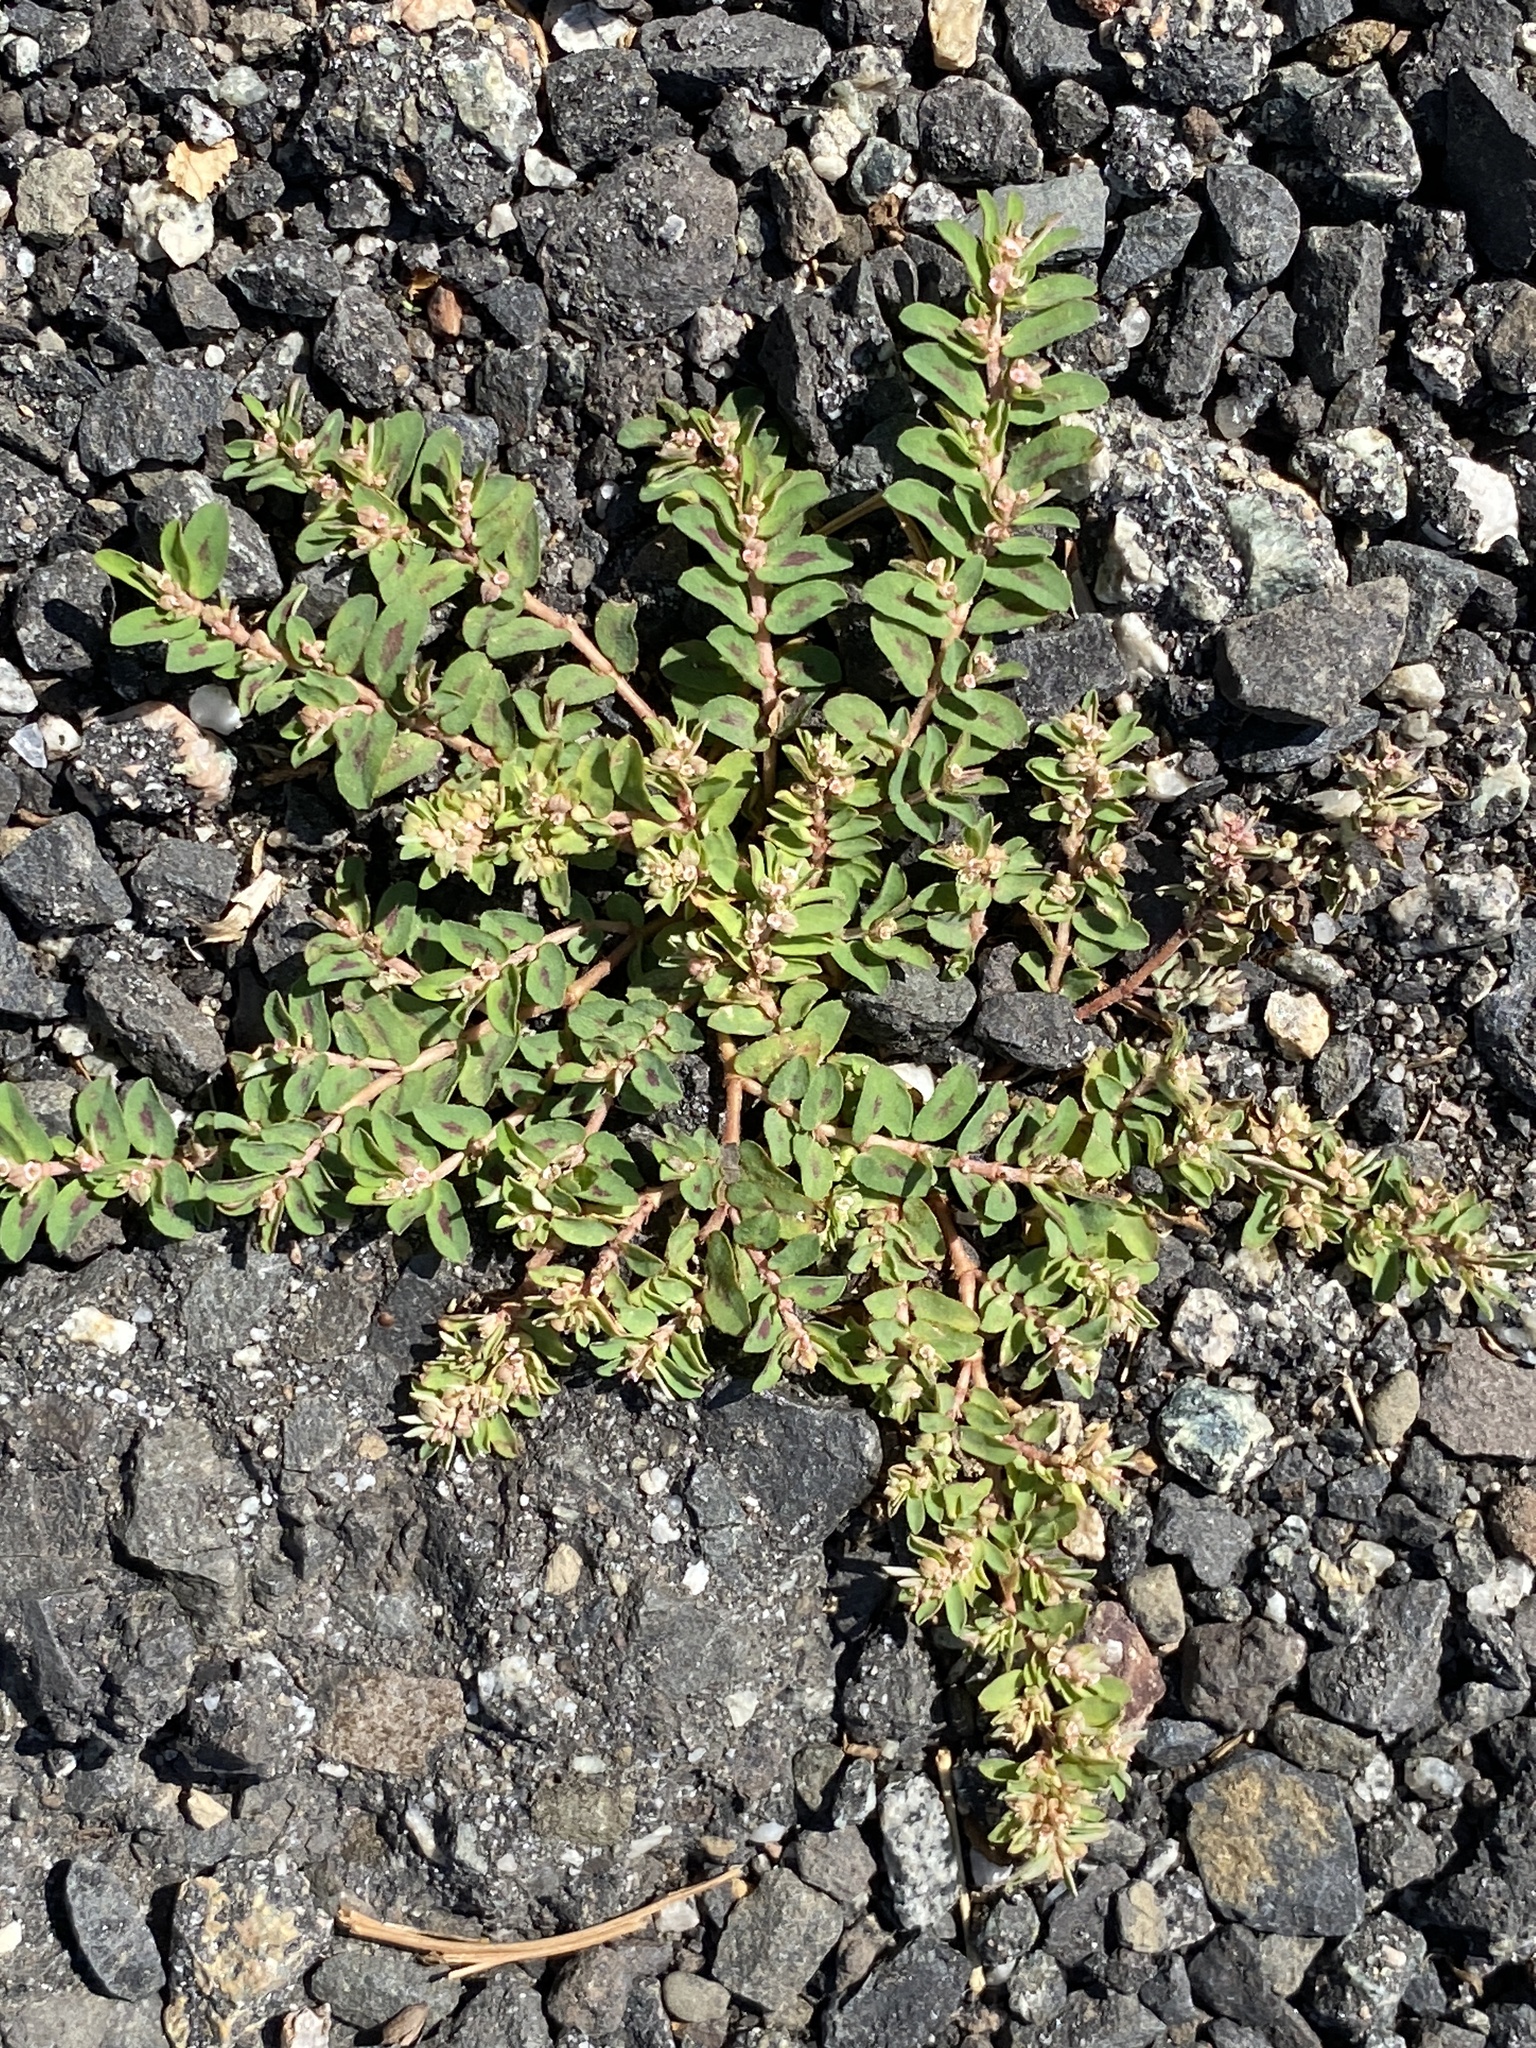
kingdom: Plantae
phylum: Tracheophyta
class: Magnoliopsida
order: Malpighiales
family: Euphorbiaceae
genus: Euphorbia
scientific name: Euphorbia maculata
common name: Spotted spurge
